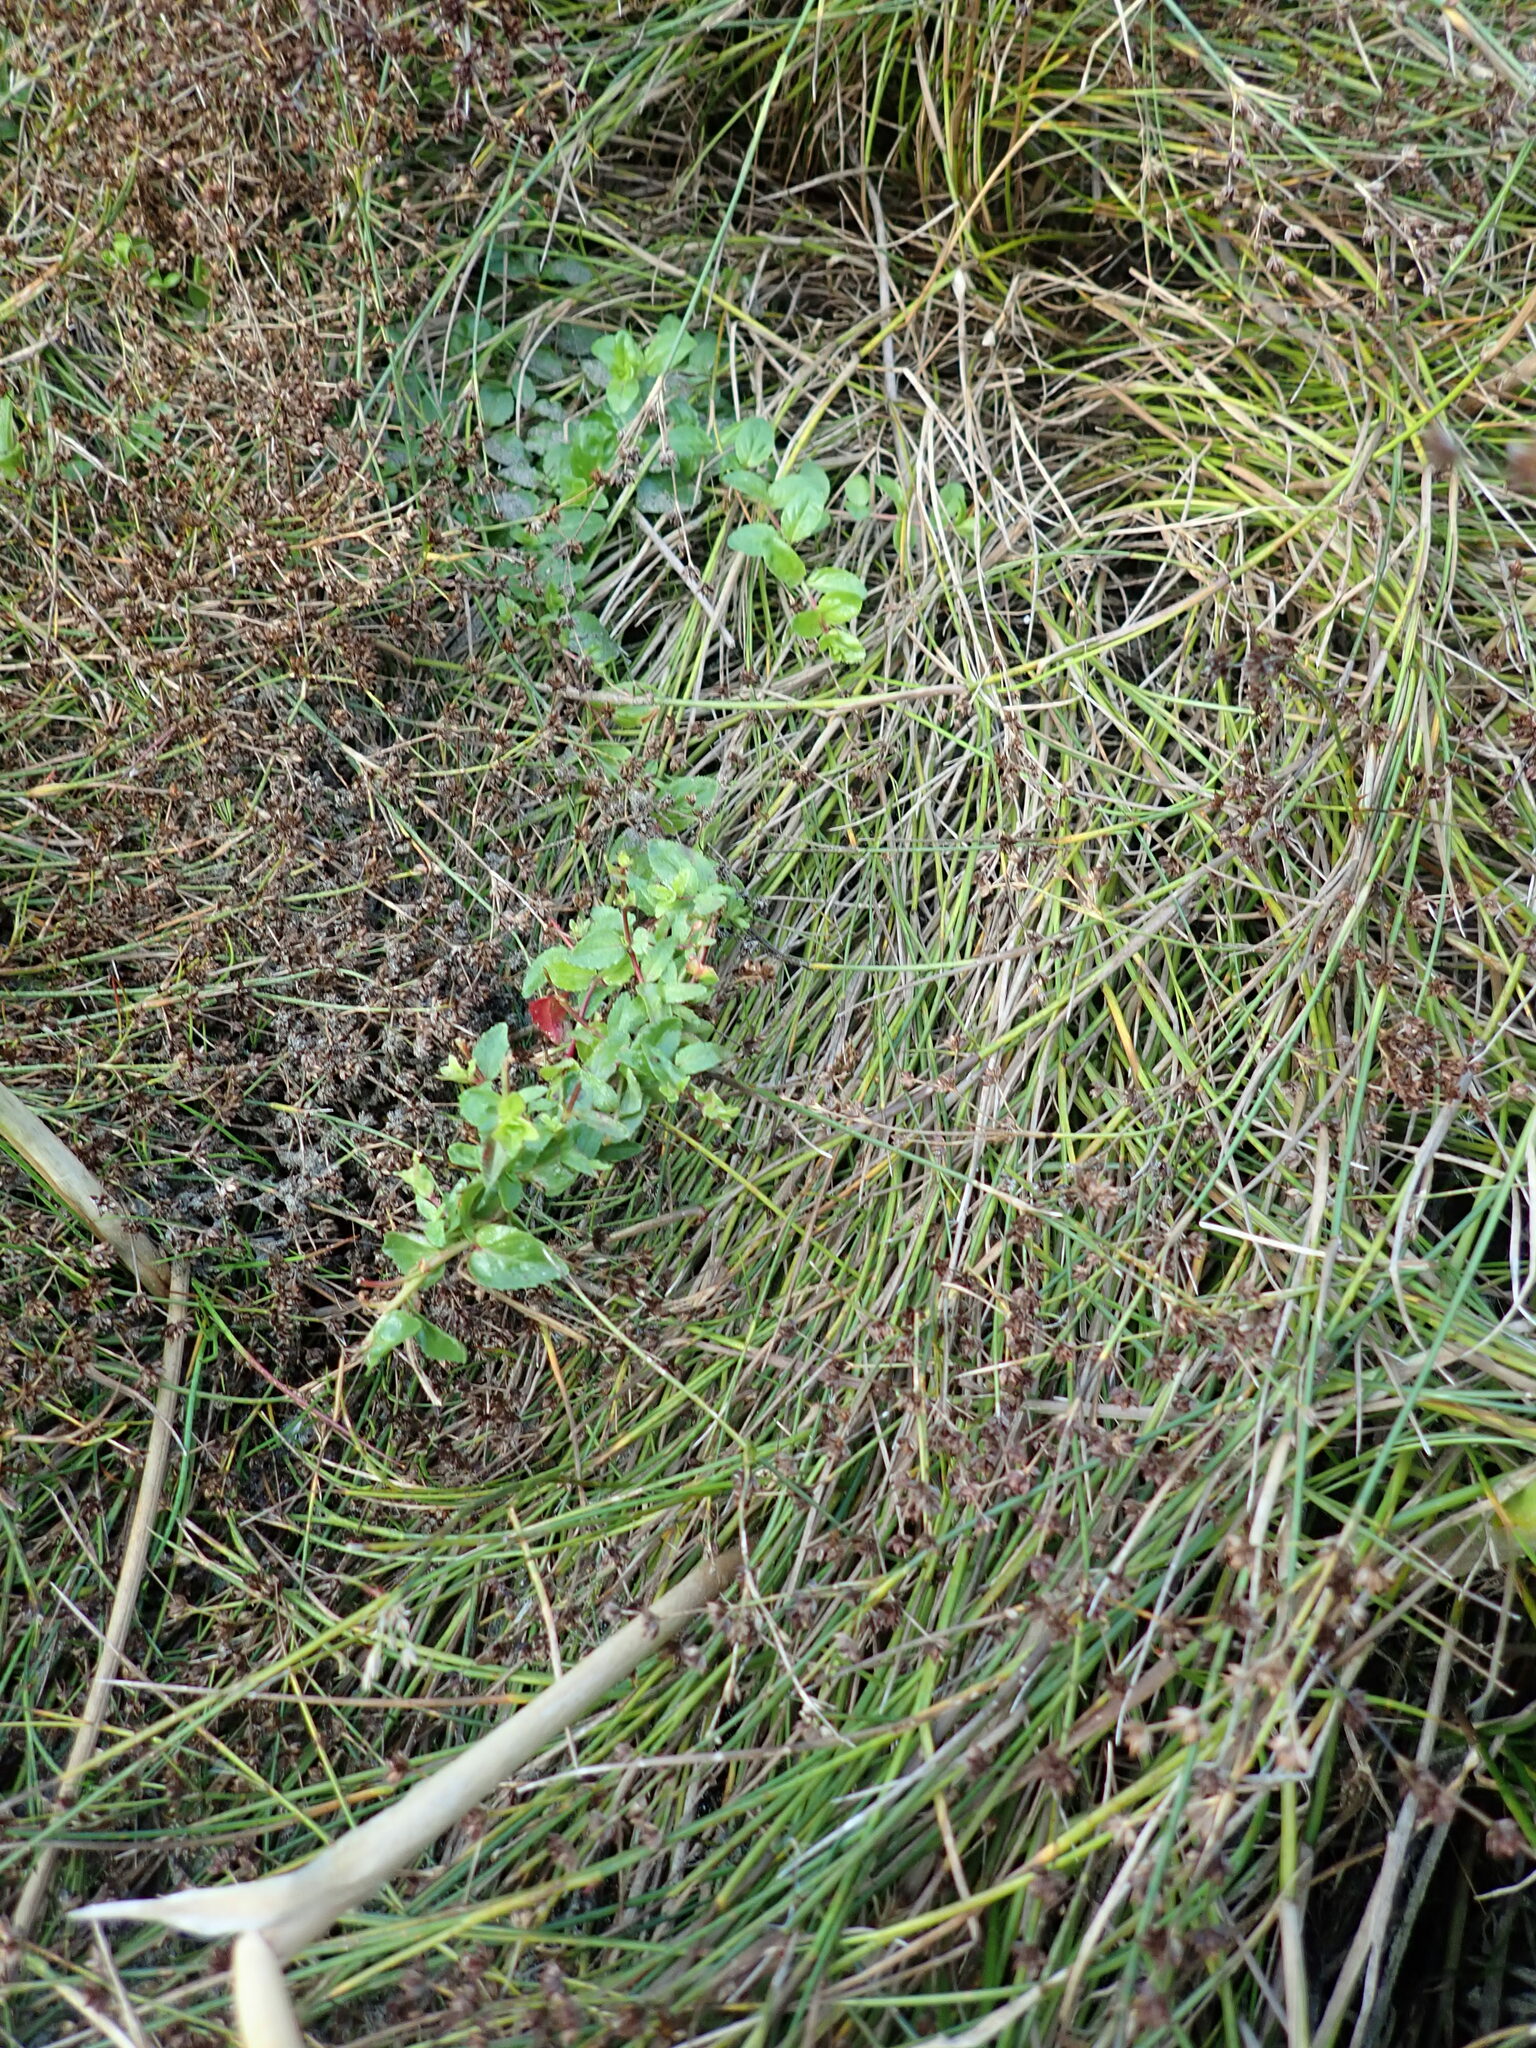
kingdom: Plantae
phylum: Tracheophyta
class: Magnoliopsida
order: Myrtales
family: Onagraceae
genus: Epilobium
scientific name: Epilobium billardiereanum
